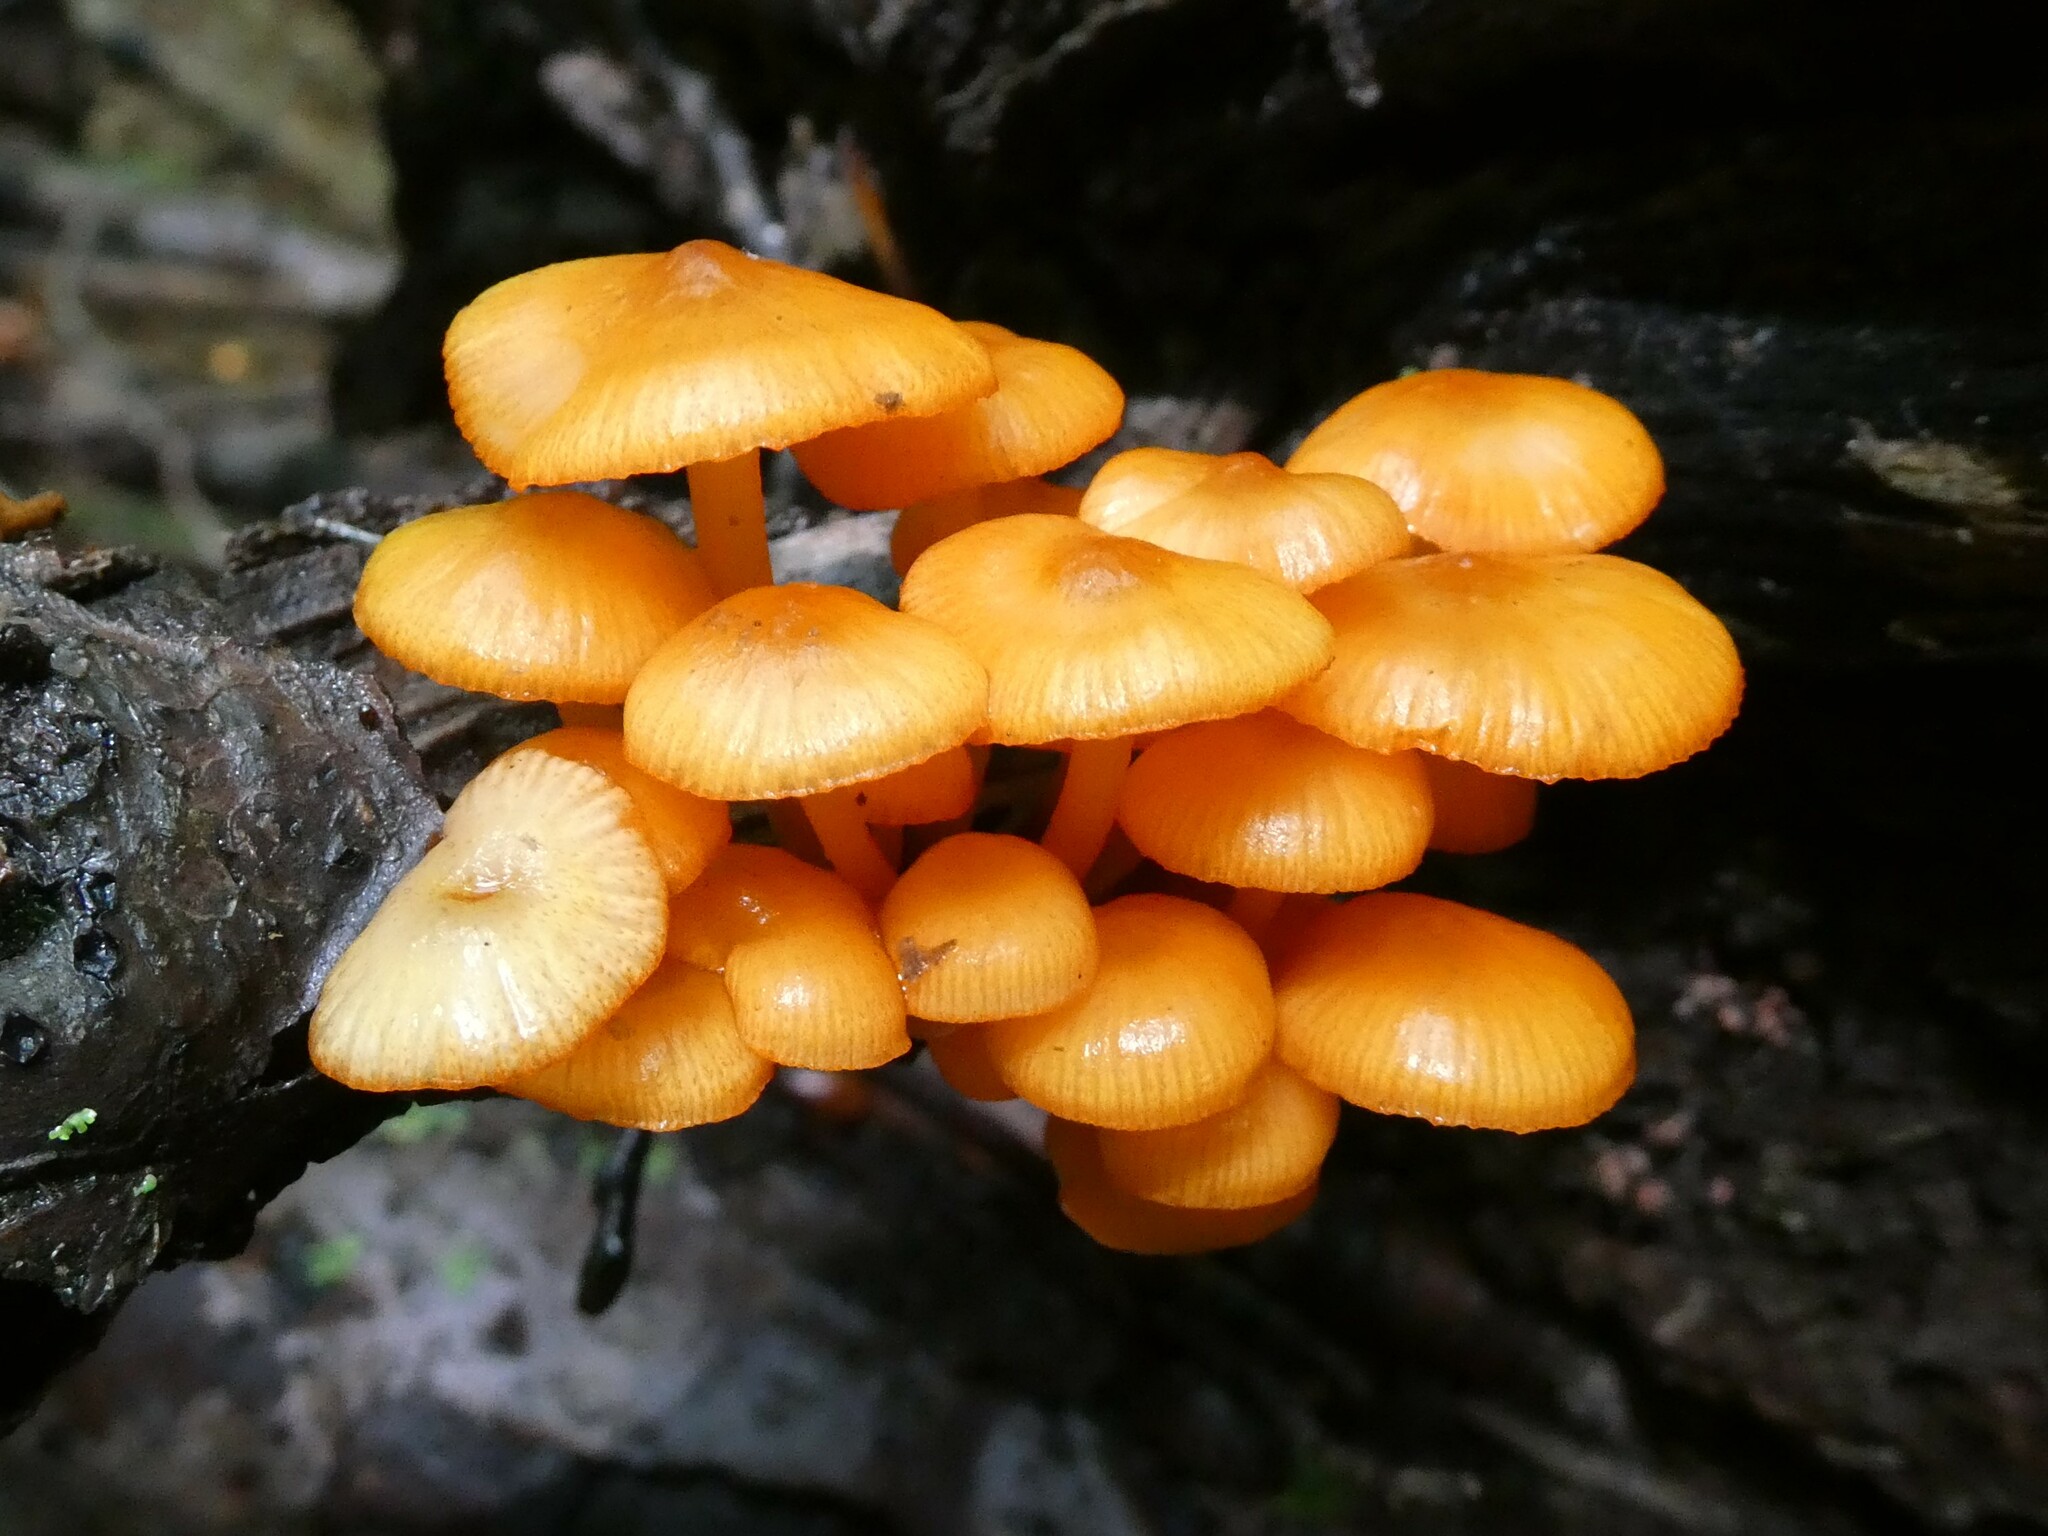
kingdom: Fungi
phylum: Basidiomycota
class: Agaricomycetes
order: Agaricales
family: Mycenaceae
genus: Mycena
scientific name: Mycena leaiana
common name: Orange mycena
